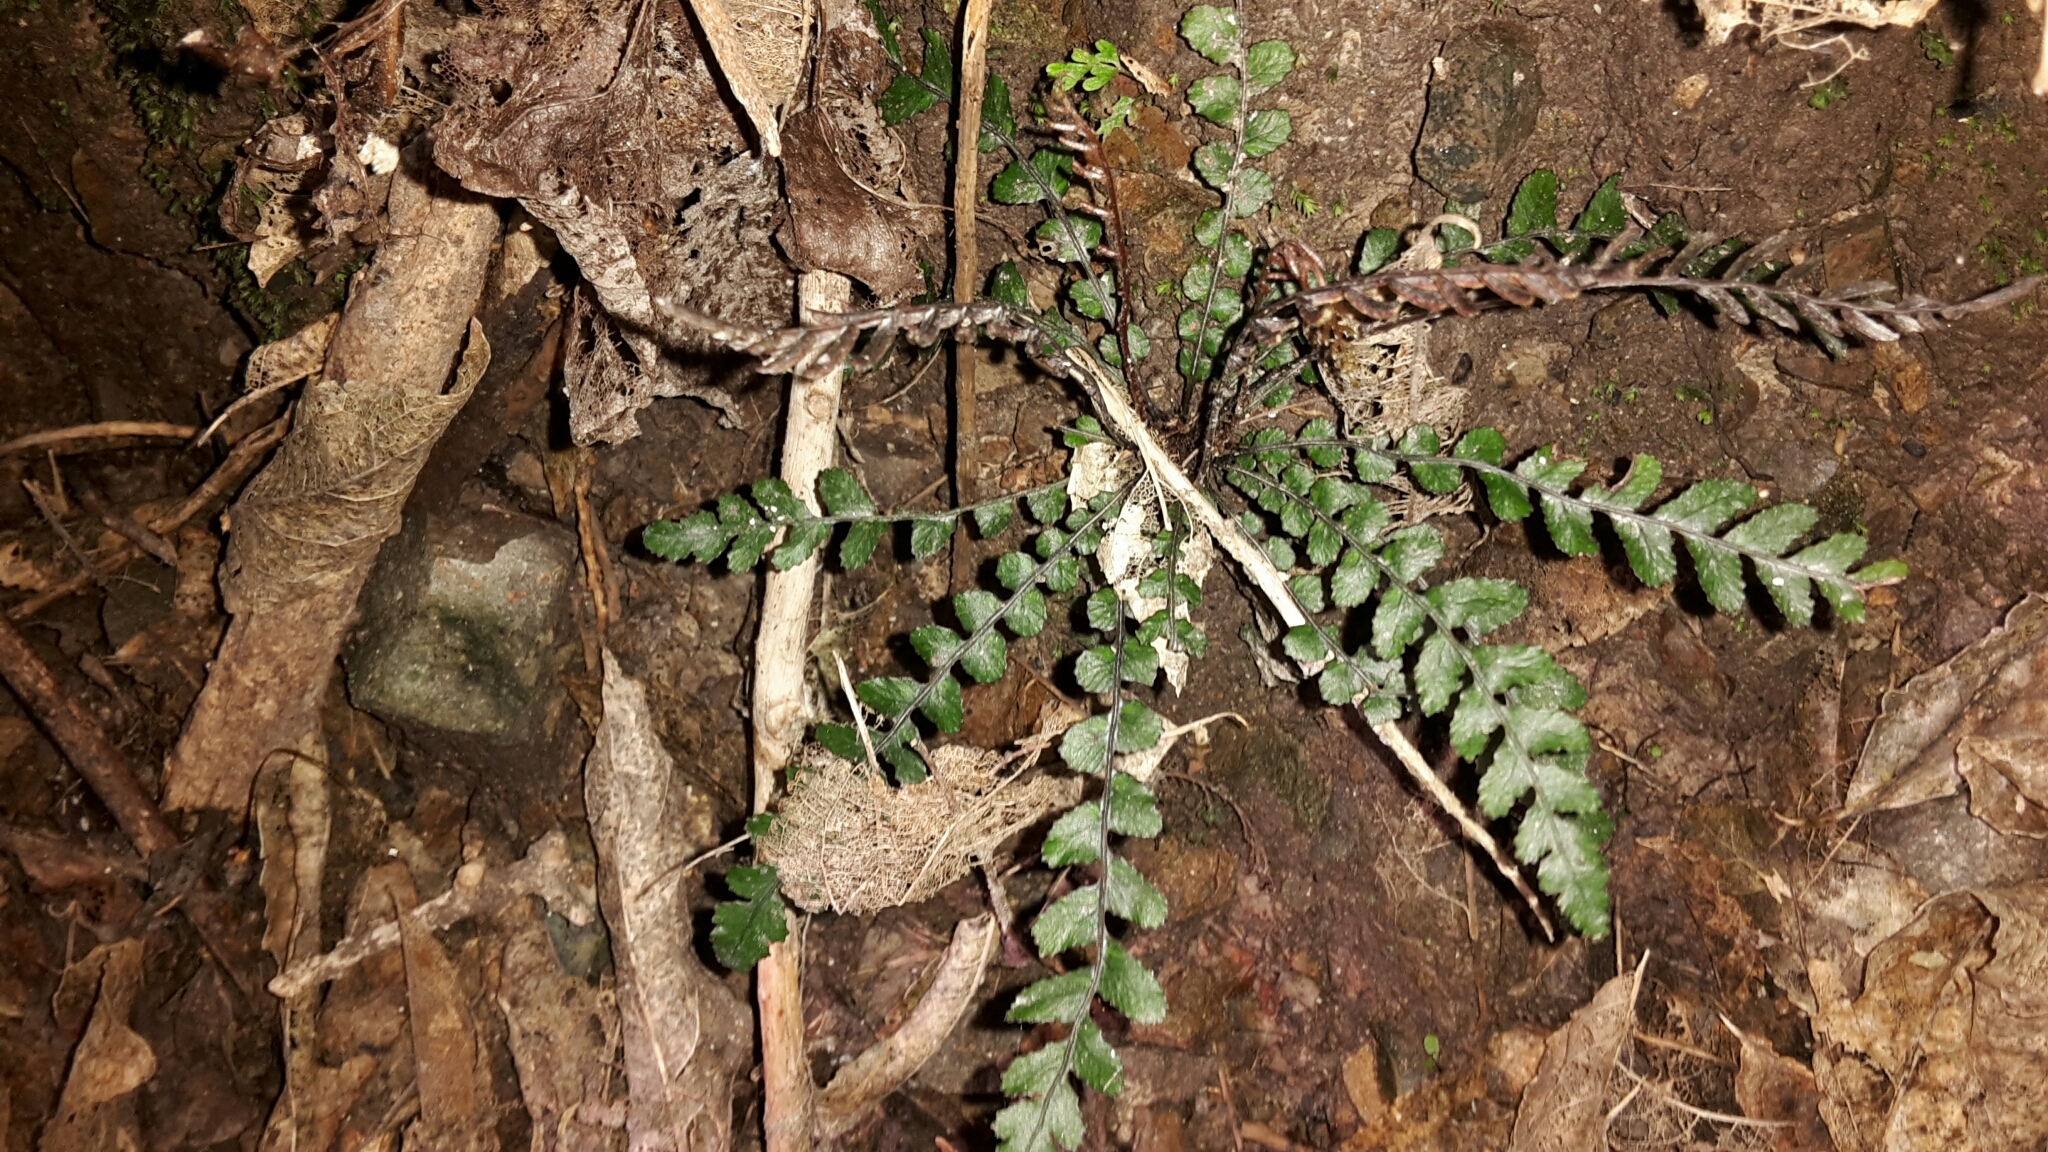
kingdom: Plantae
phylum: Tracheophyta
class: Polypodiopsida
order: Polypodiales
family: Blechnaceae
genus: Austroblechnum
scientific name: Austroblechnum membranaceum
